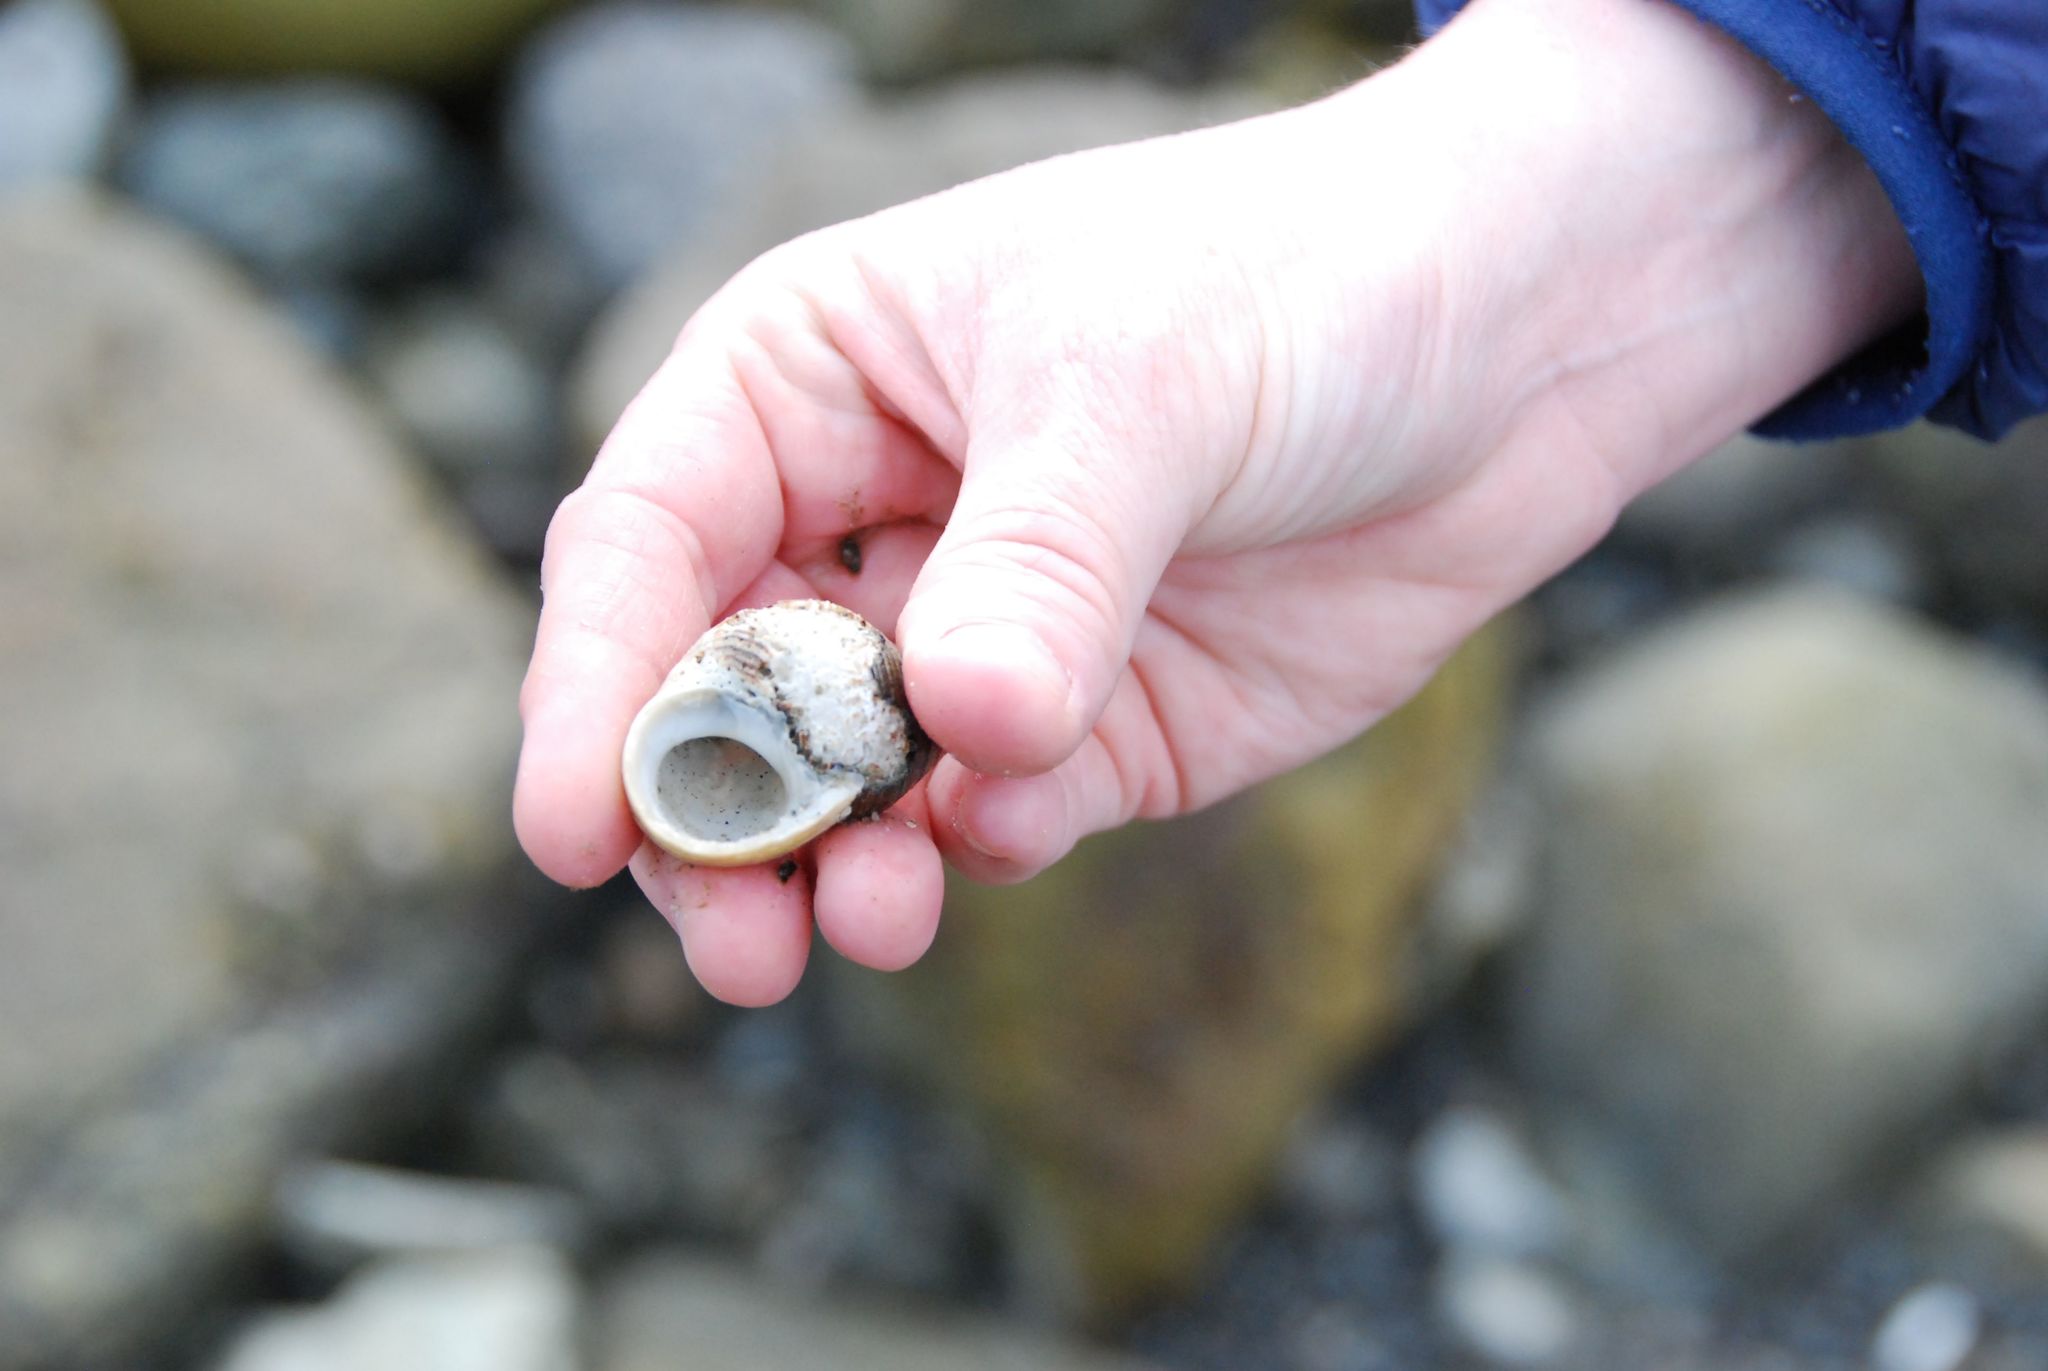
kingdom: Animalia
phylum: Mollusca
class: Gastropoda
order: Littorinimorpha
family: Littorinidae
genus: Littorina
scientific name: Littorina littorea
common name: Common periwinkle
